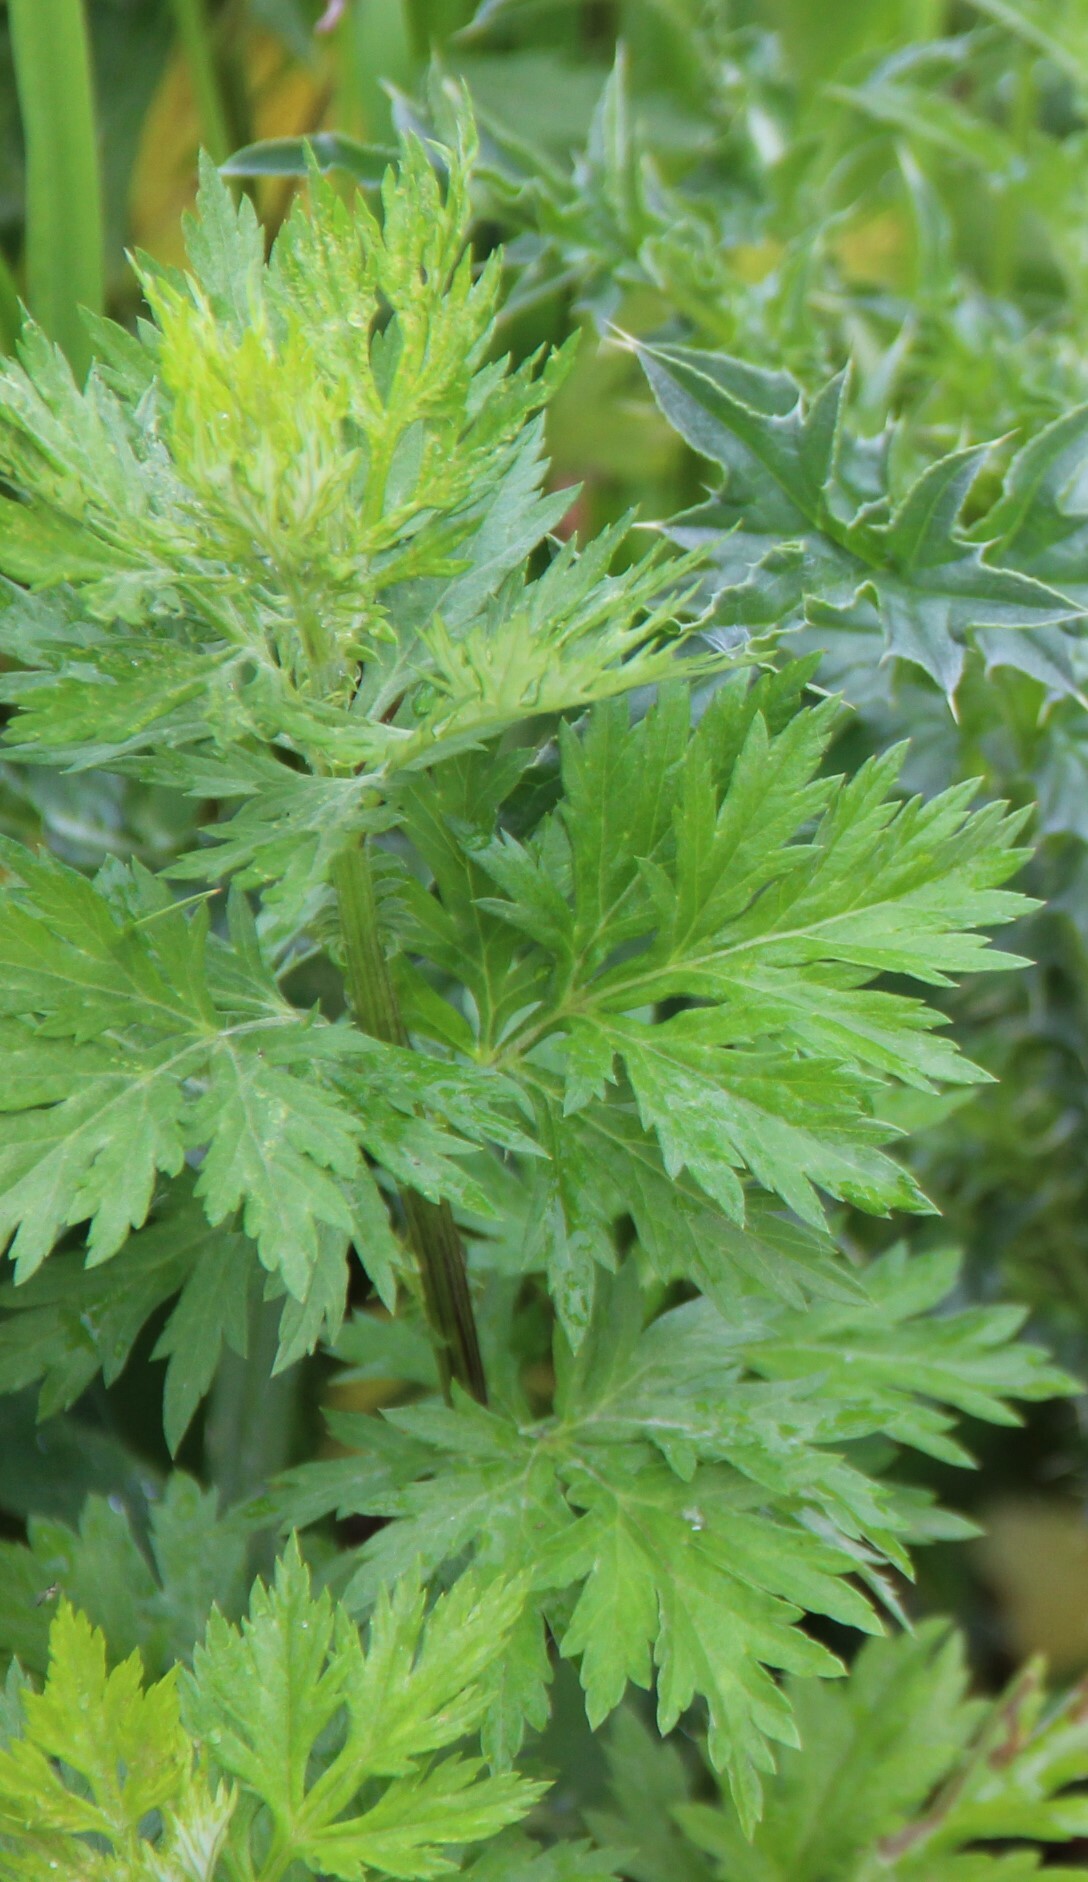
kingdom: Plantae
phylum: Tracheophyta
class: Magnoliopsida
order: Asterales
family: Asteraceae
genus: Artemisia
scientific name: Artemisia vulgaris
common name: Mugwort
